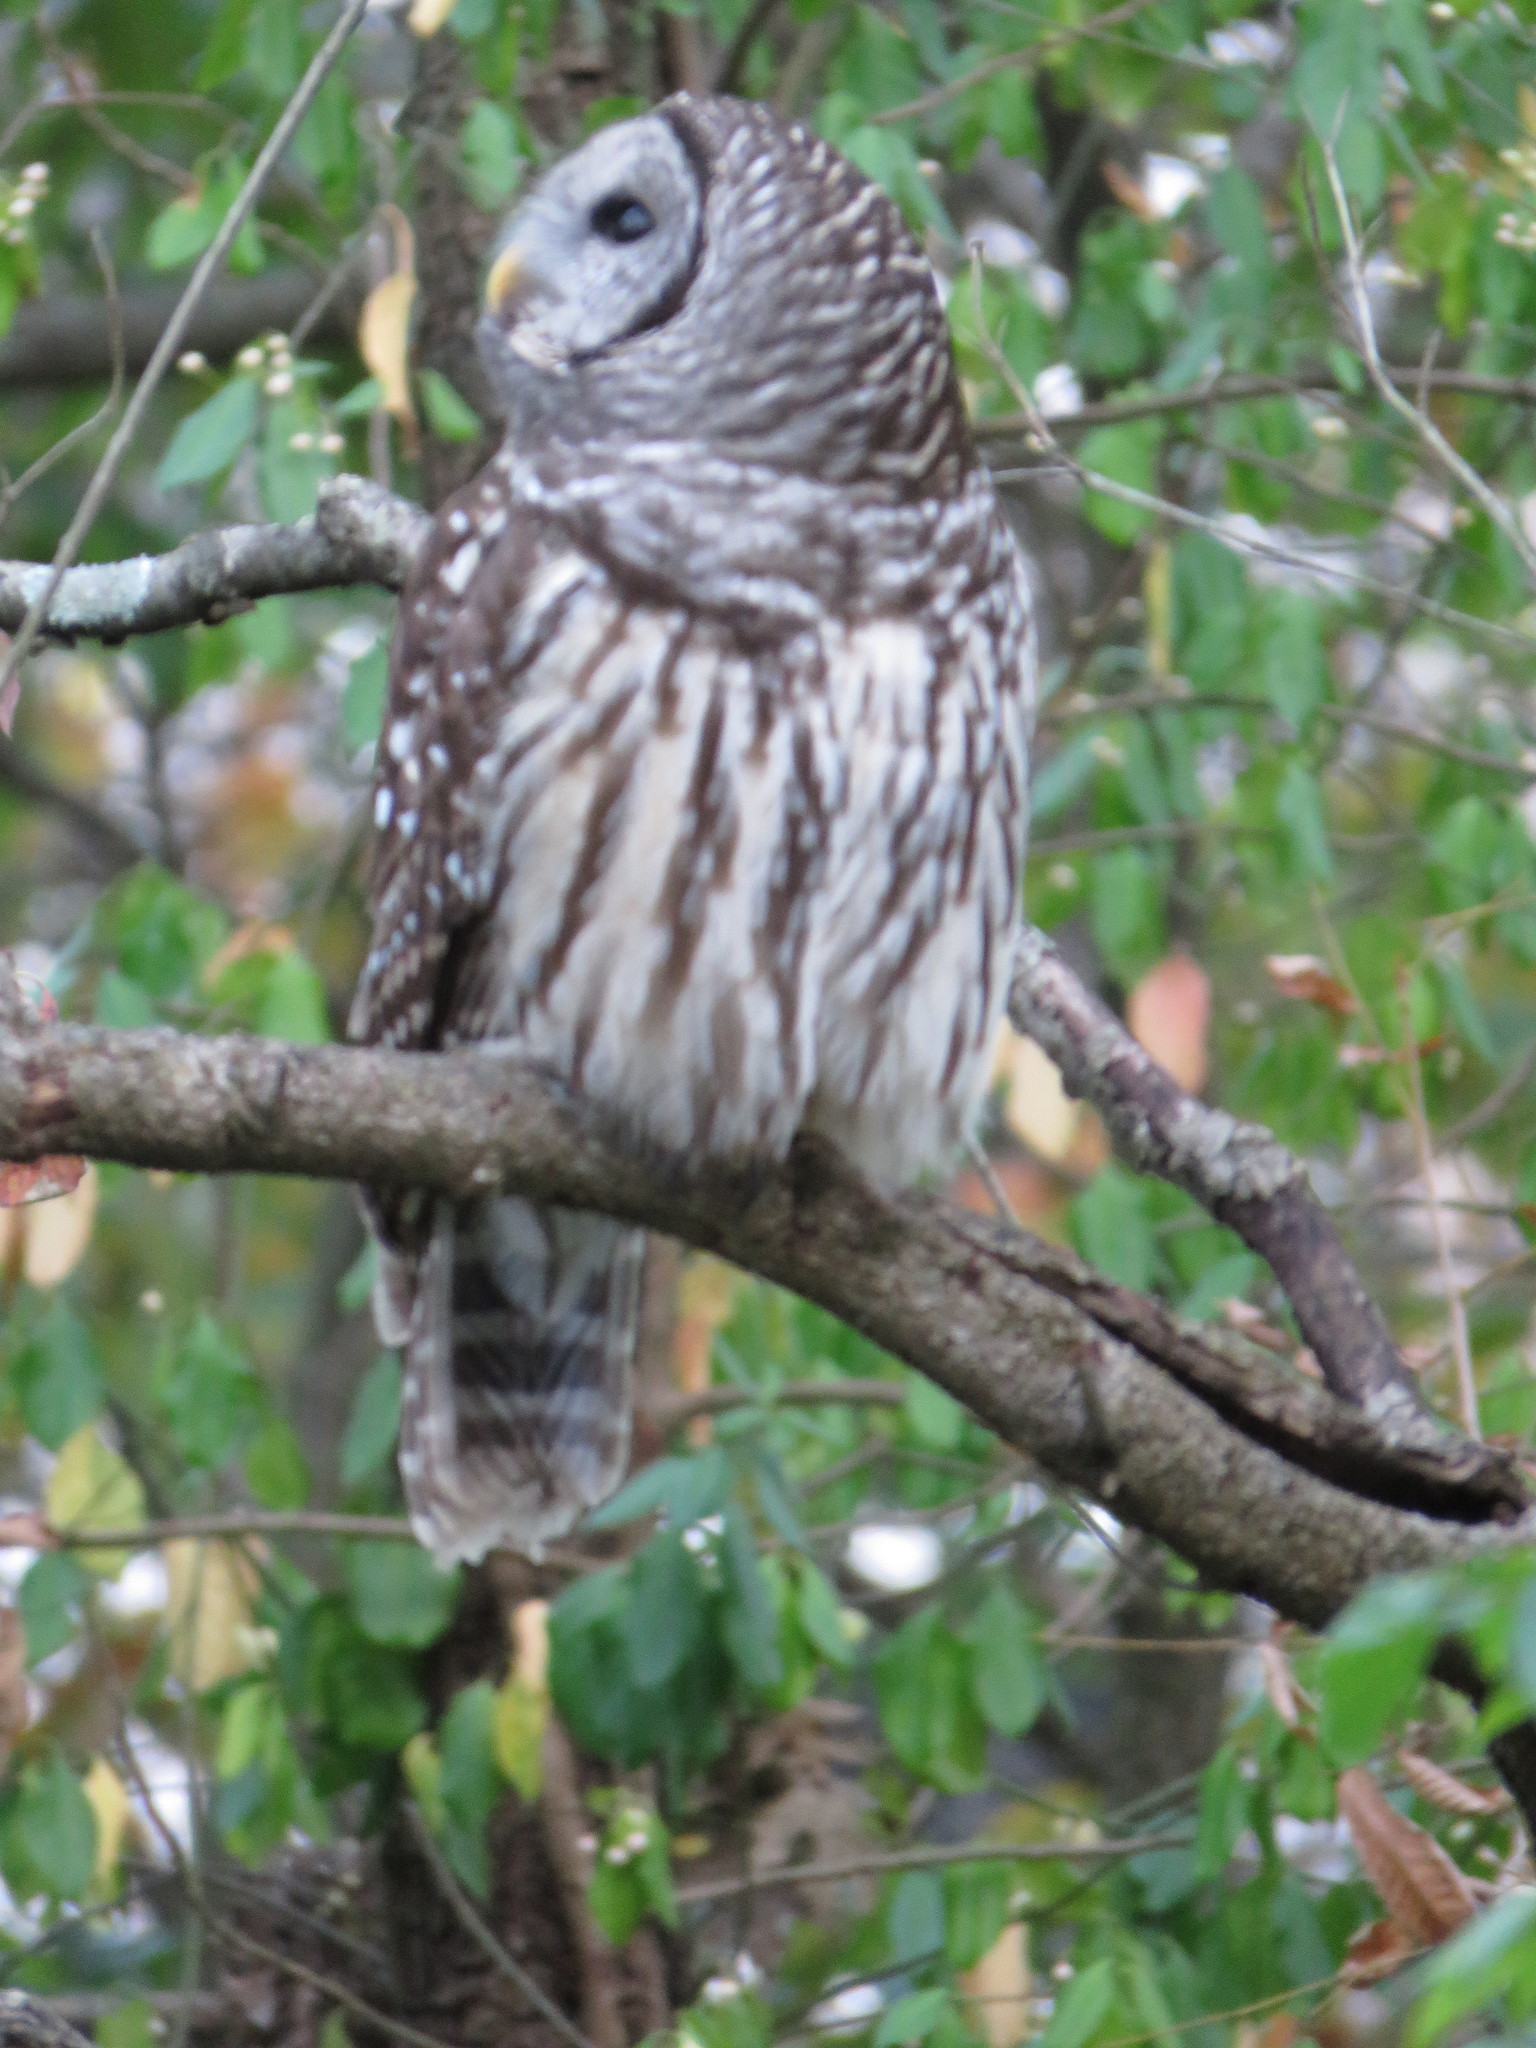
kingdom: Animalia
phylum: Chordata
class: Aves
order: Strigiformes
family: Strigidae
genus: Strix
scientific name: Strix varia
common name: Barred owl
